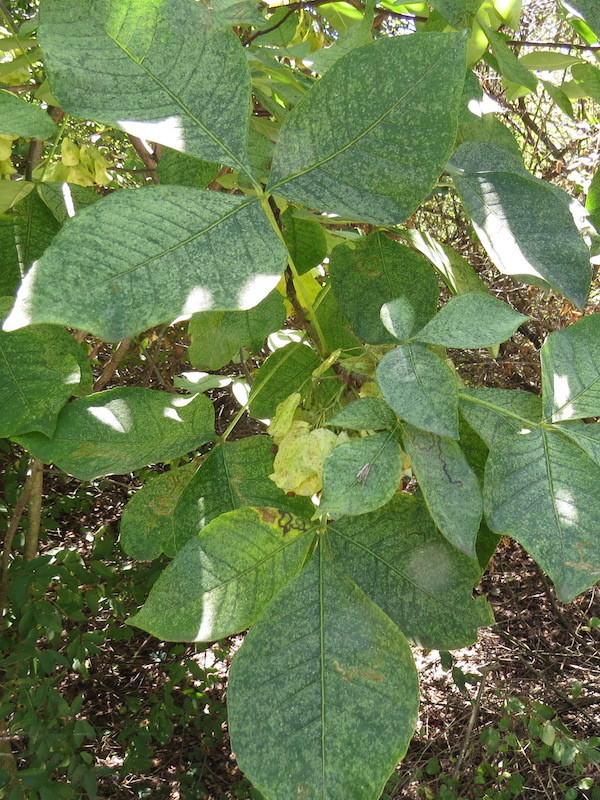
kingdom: Plantae
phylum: Tracheophyta
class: Magnoliopsida
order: Sapindales
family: Rutaceae
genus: Ptelea
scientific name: Ptelea trifoliata
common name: Common hop-tree
